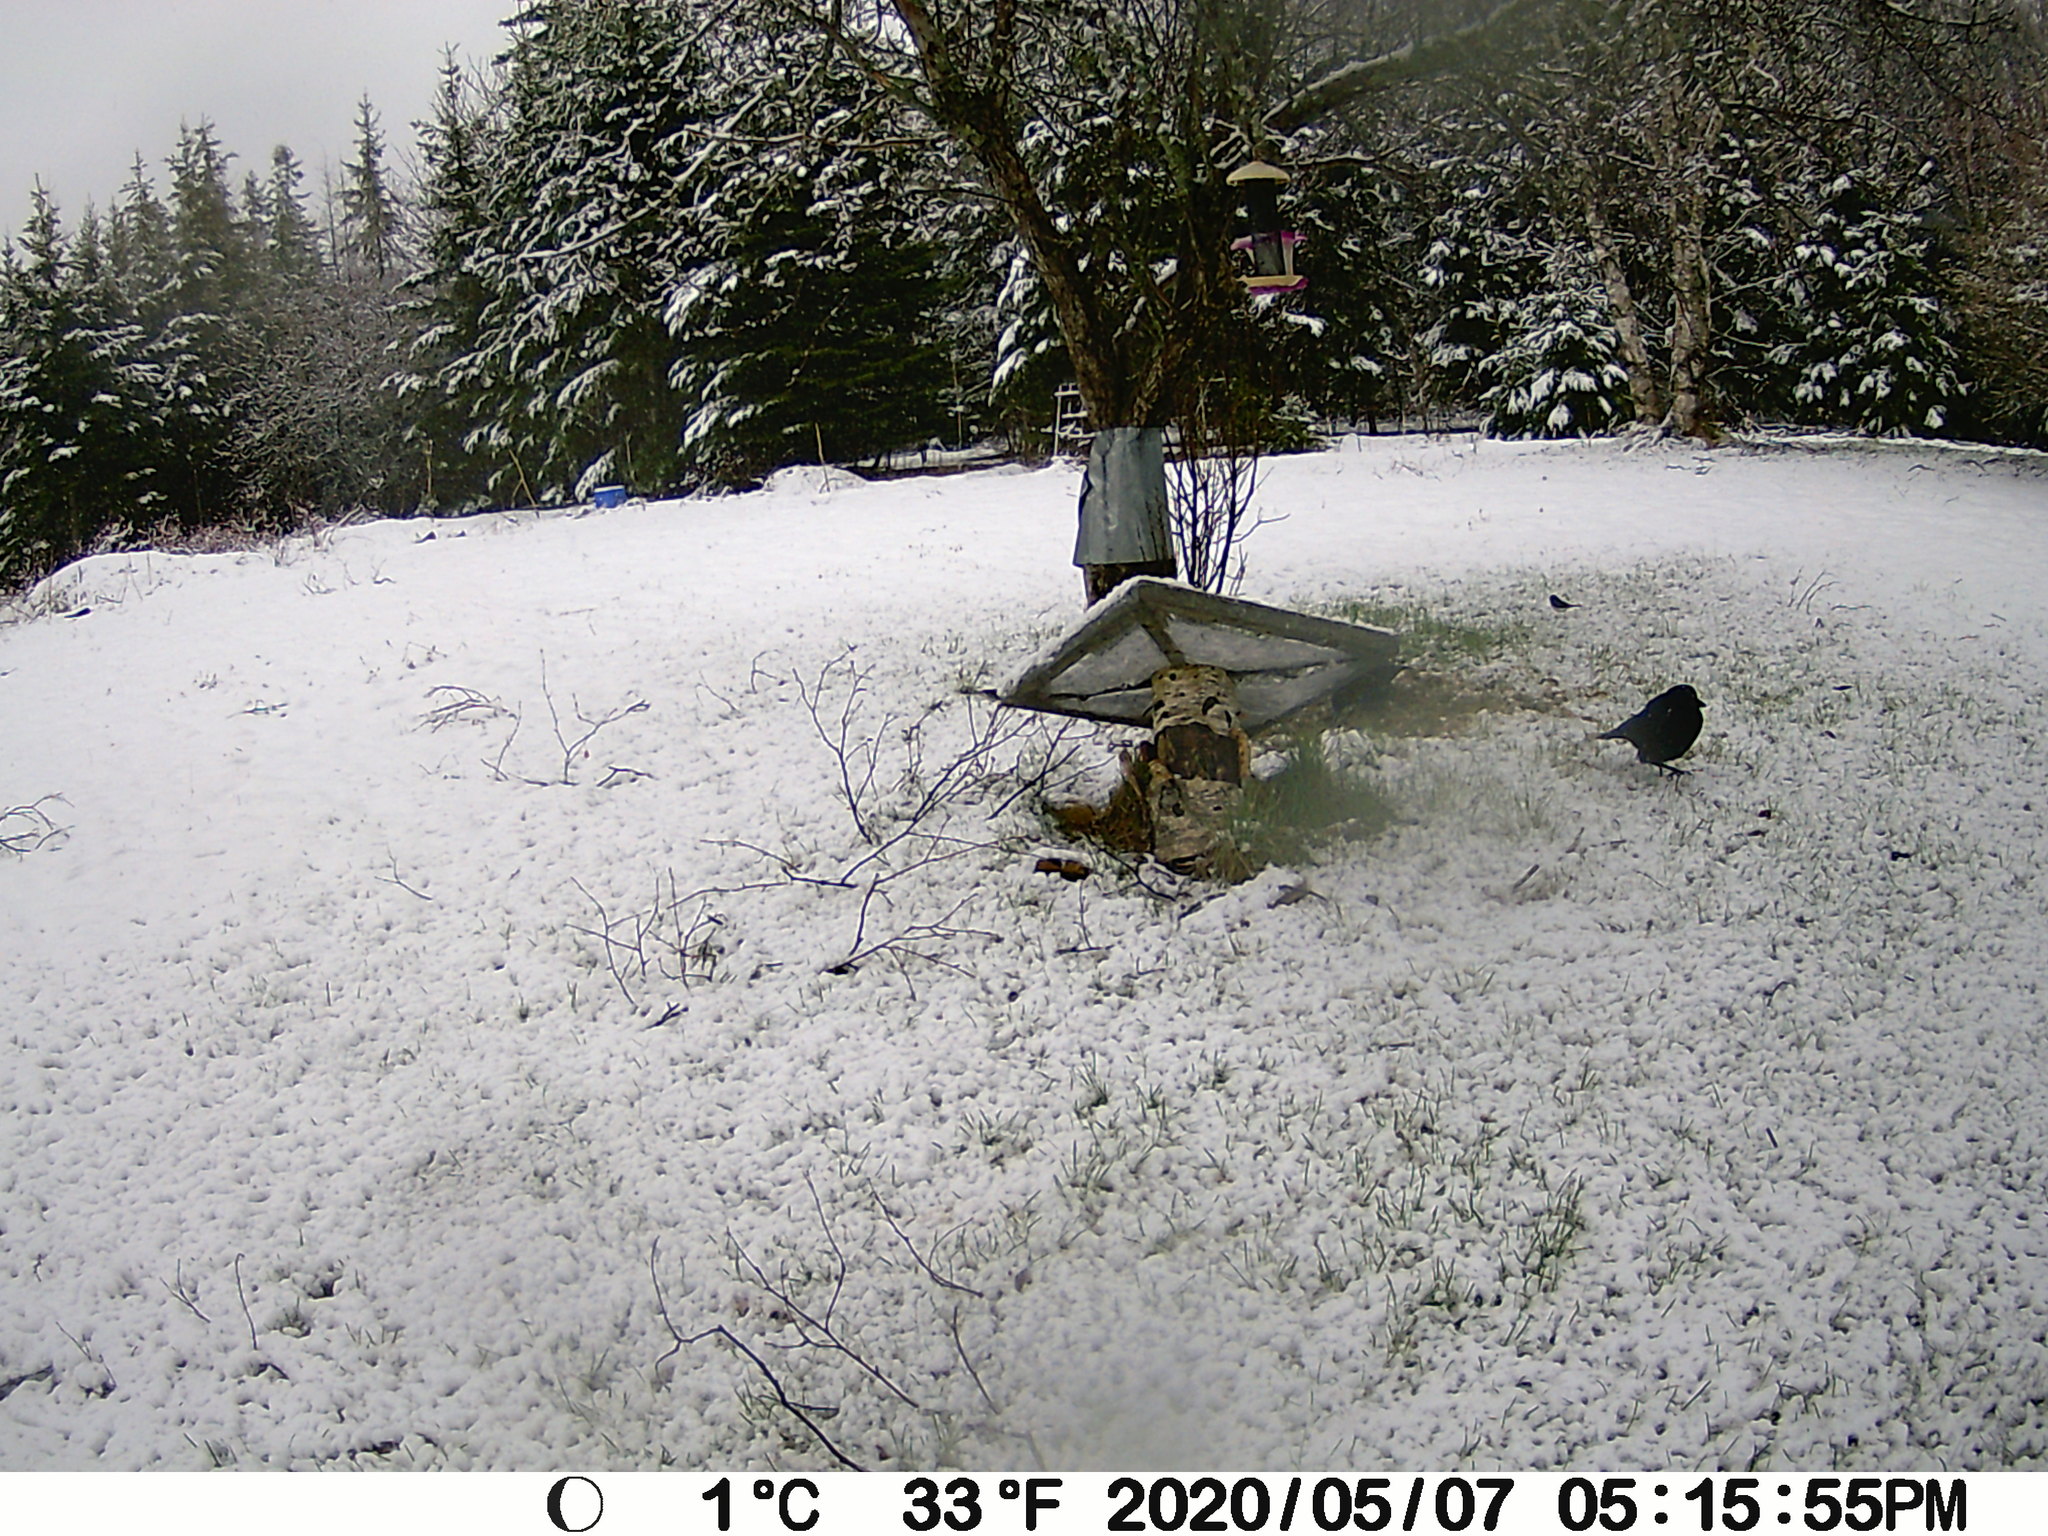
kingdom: Animalia
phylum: Chordata
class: Aves
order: Passeriformes
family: Passerellidae
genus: Junco
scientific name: Junco hyemalis
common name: Dark-eyed junco
